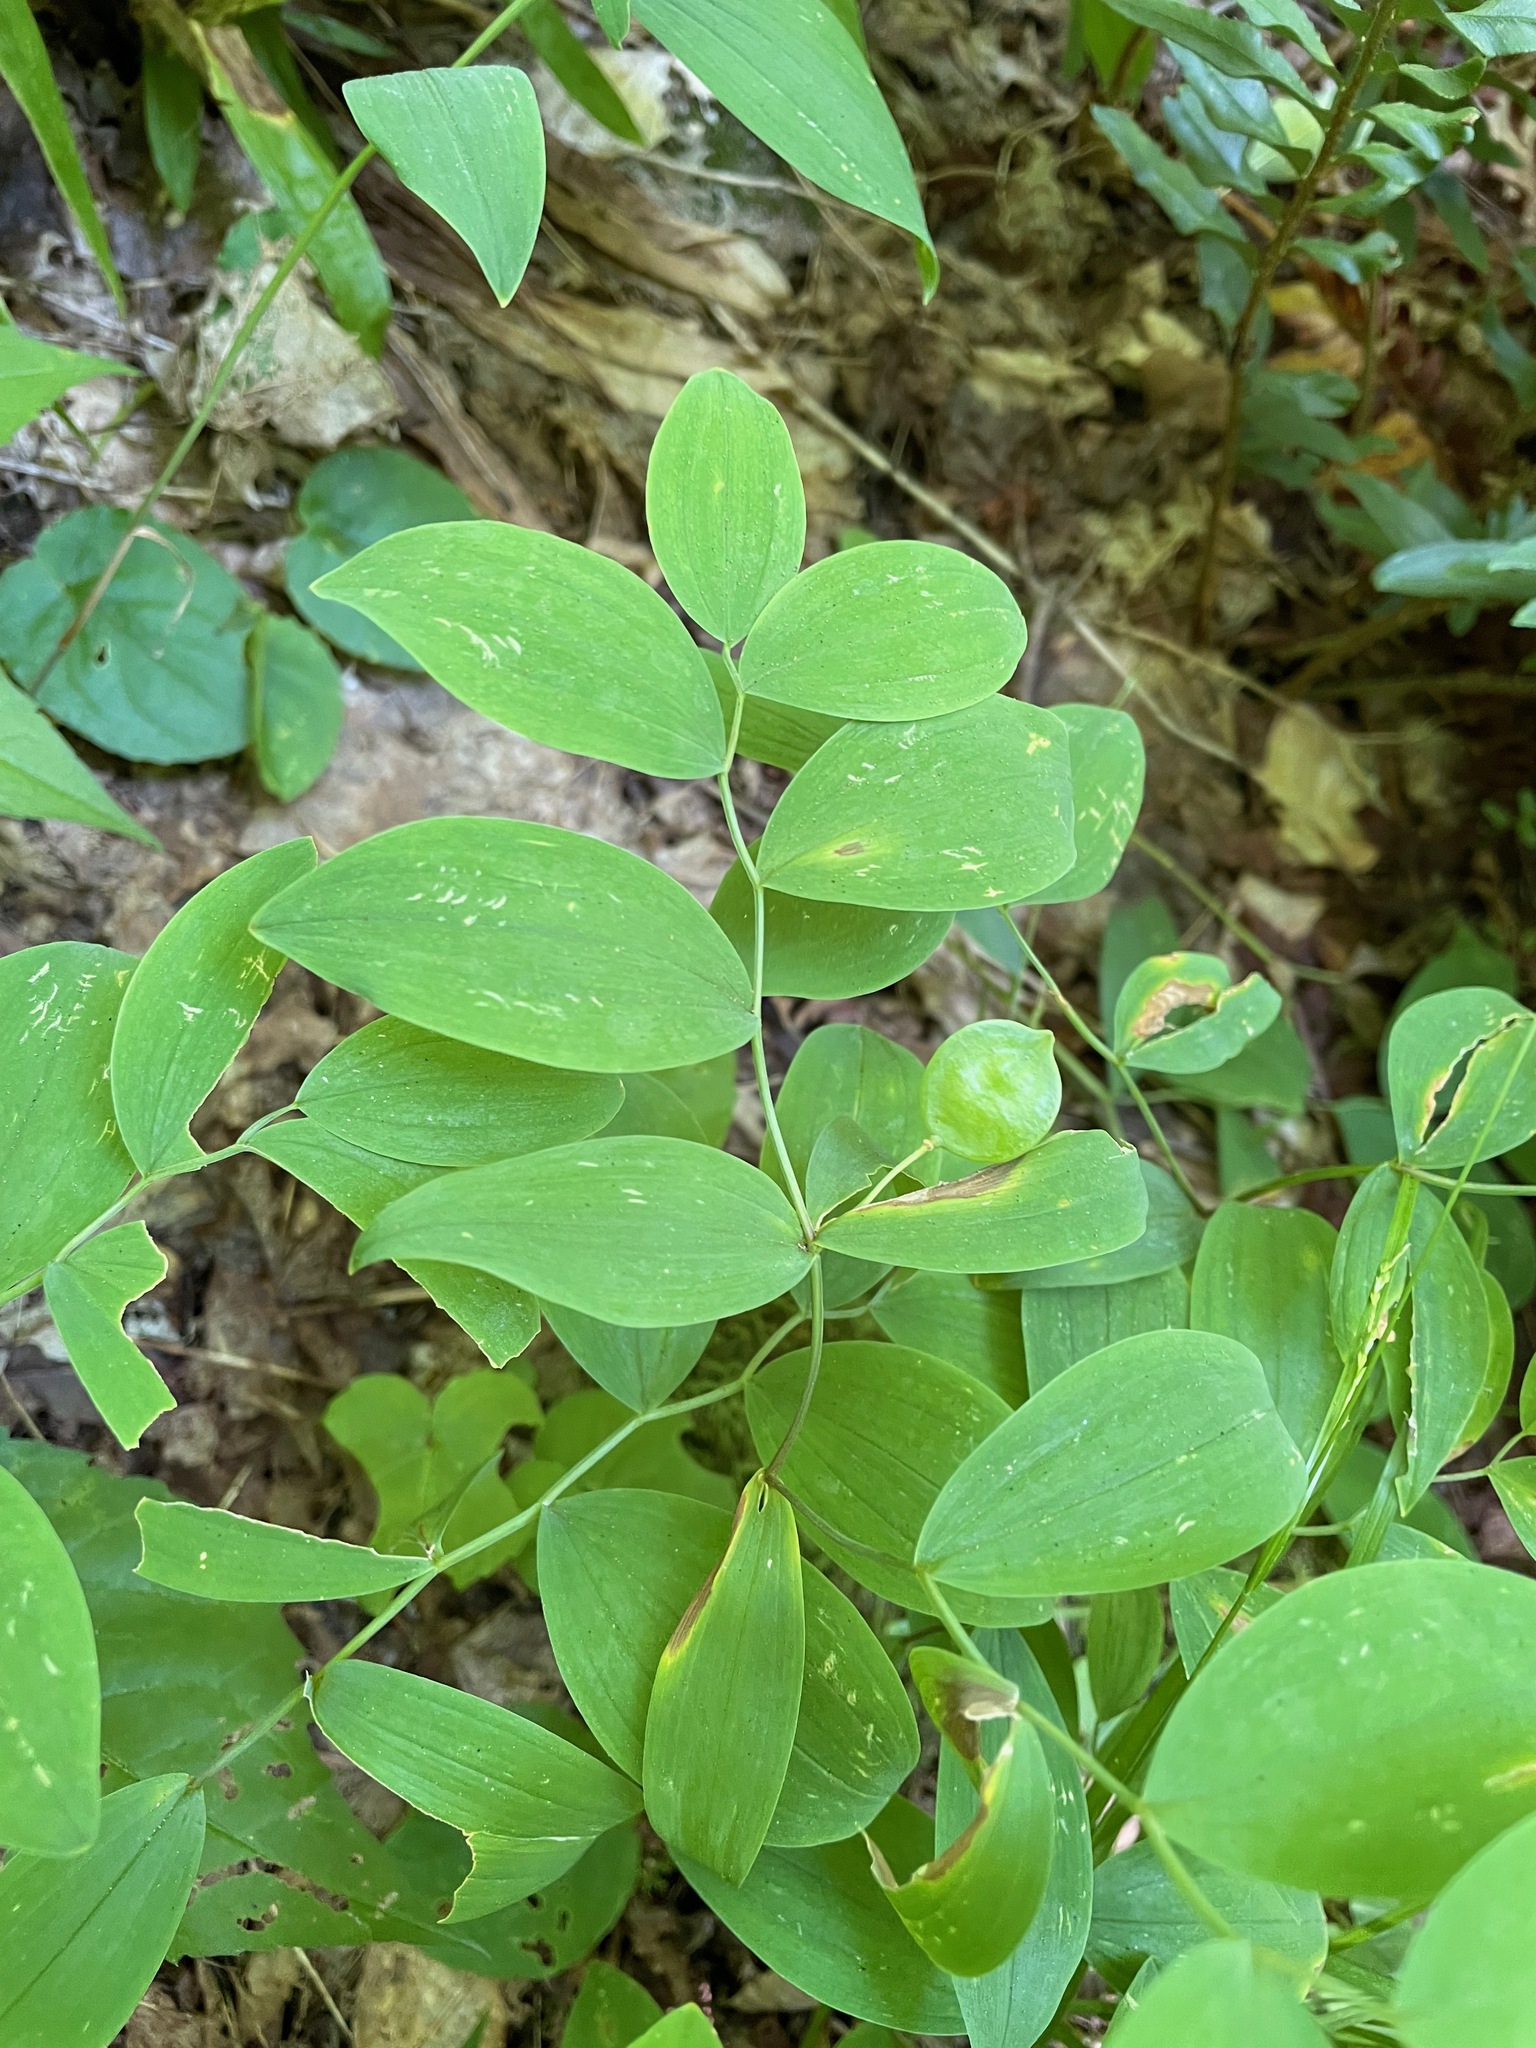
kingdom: Plantae
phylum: Tracheophyta
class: Liliopsida
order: Liliales
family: Colchicaceae
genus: Uvularia
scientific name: Uvularia sessilifolia
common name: Straw-lily
